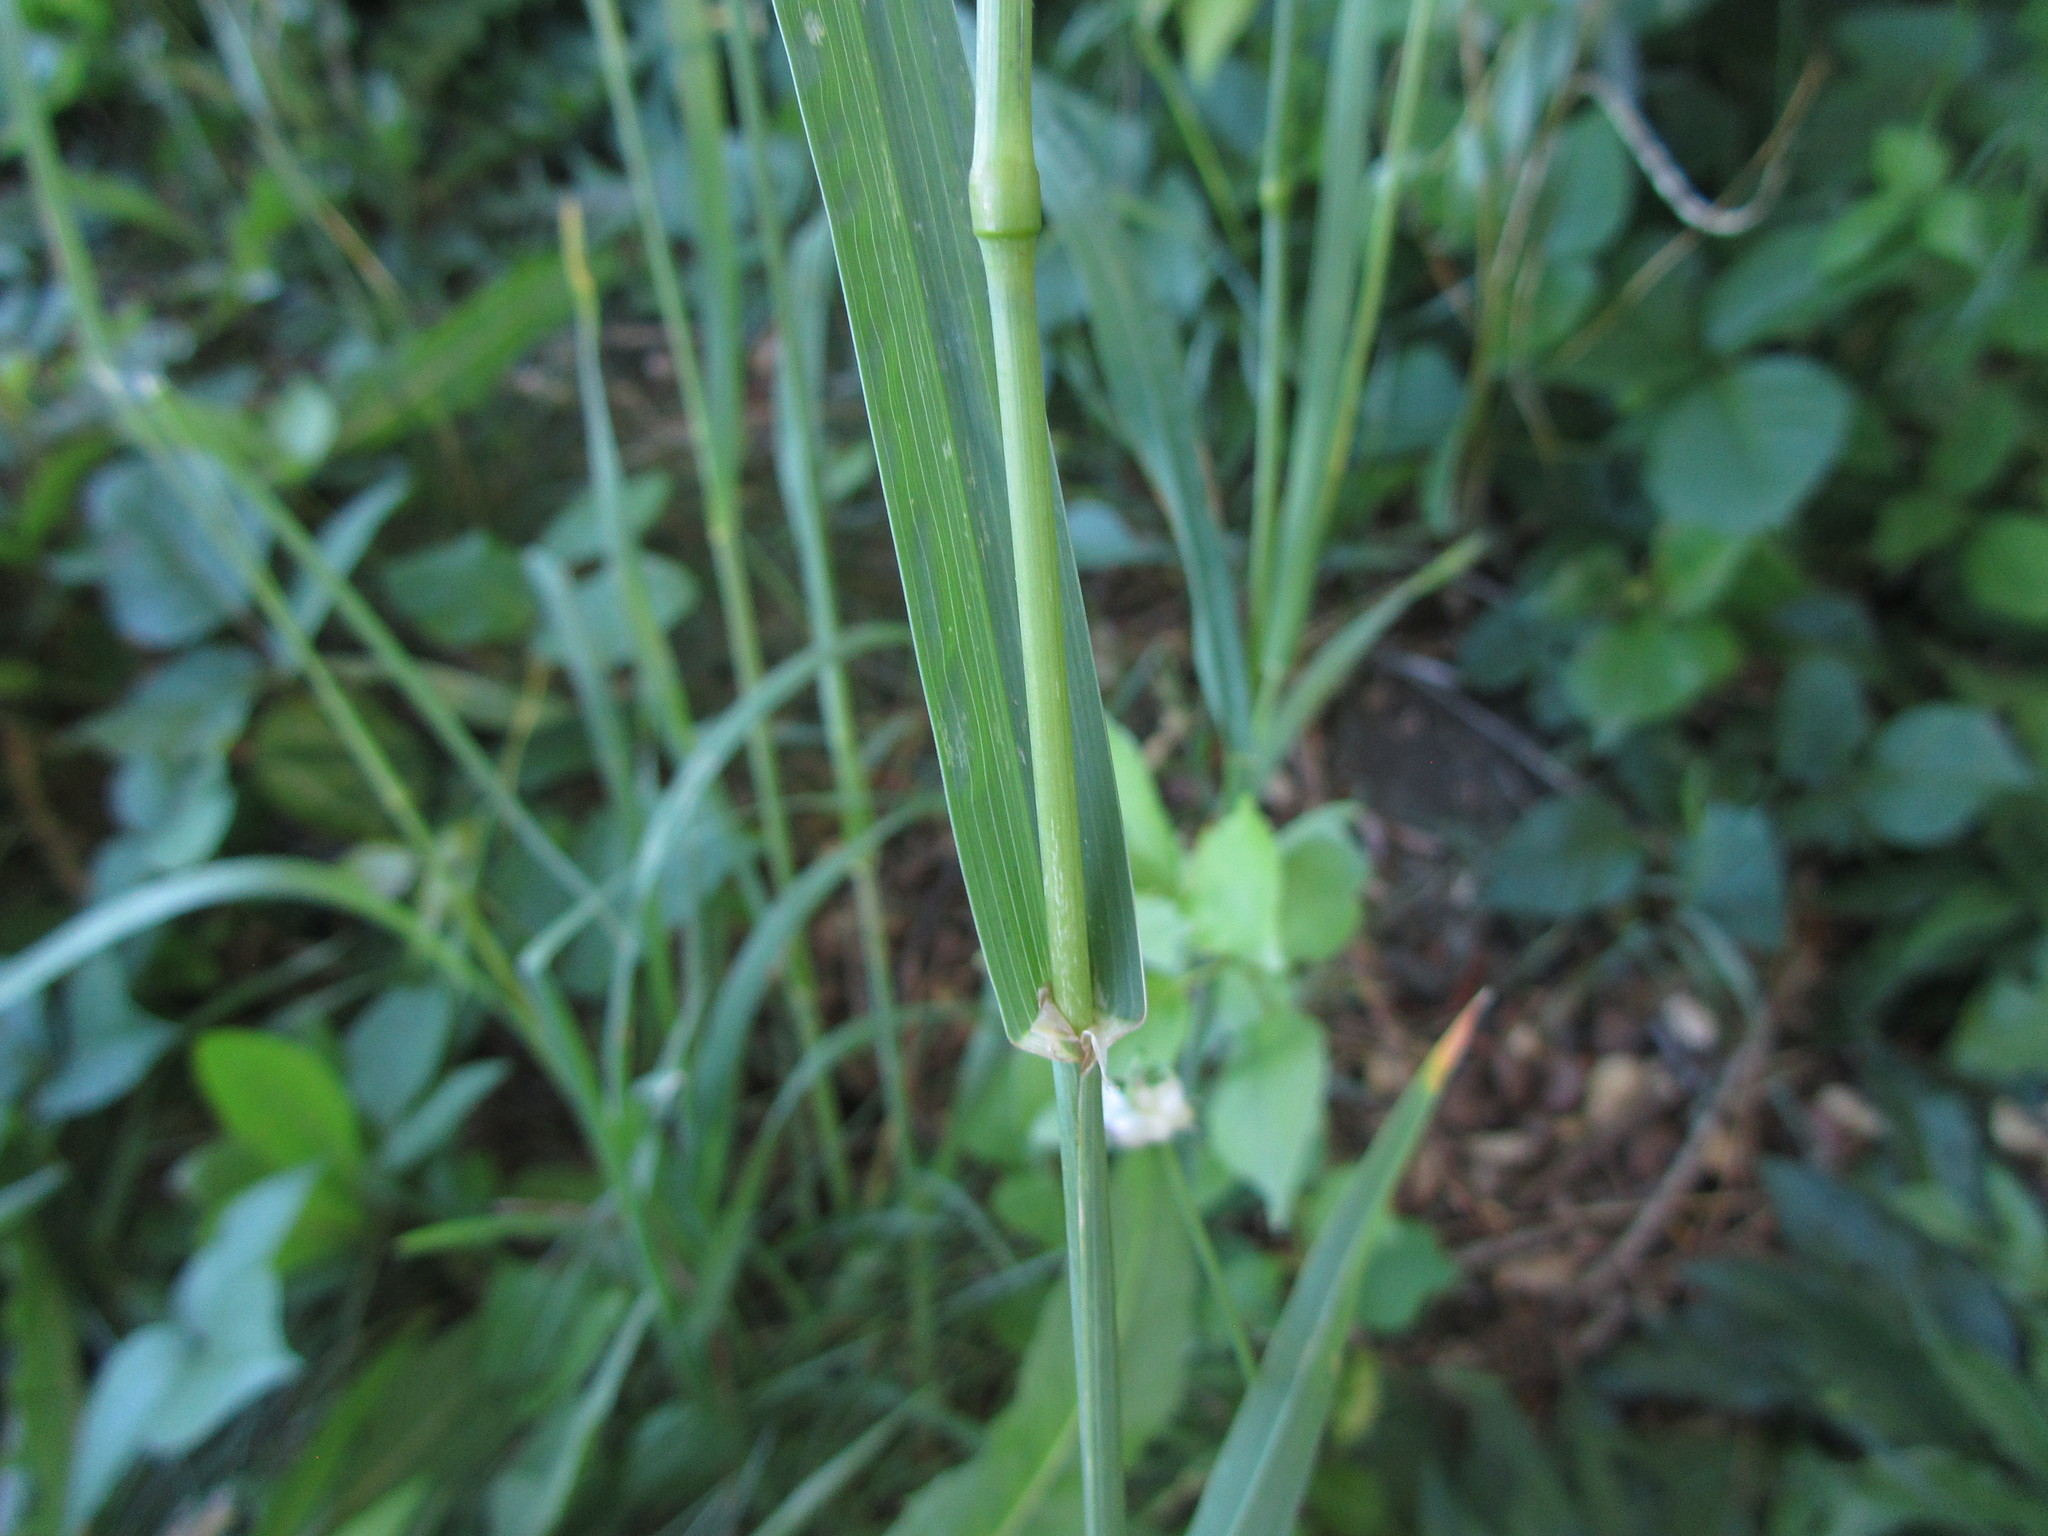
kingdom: Plantae
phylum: Tracheophyta
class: Liliopsida
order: Poales
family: Poaceae
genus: Dactylis
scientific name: Dactylis glomerata
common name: Orchardgrass
